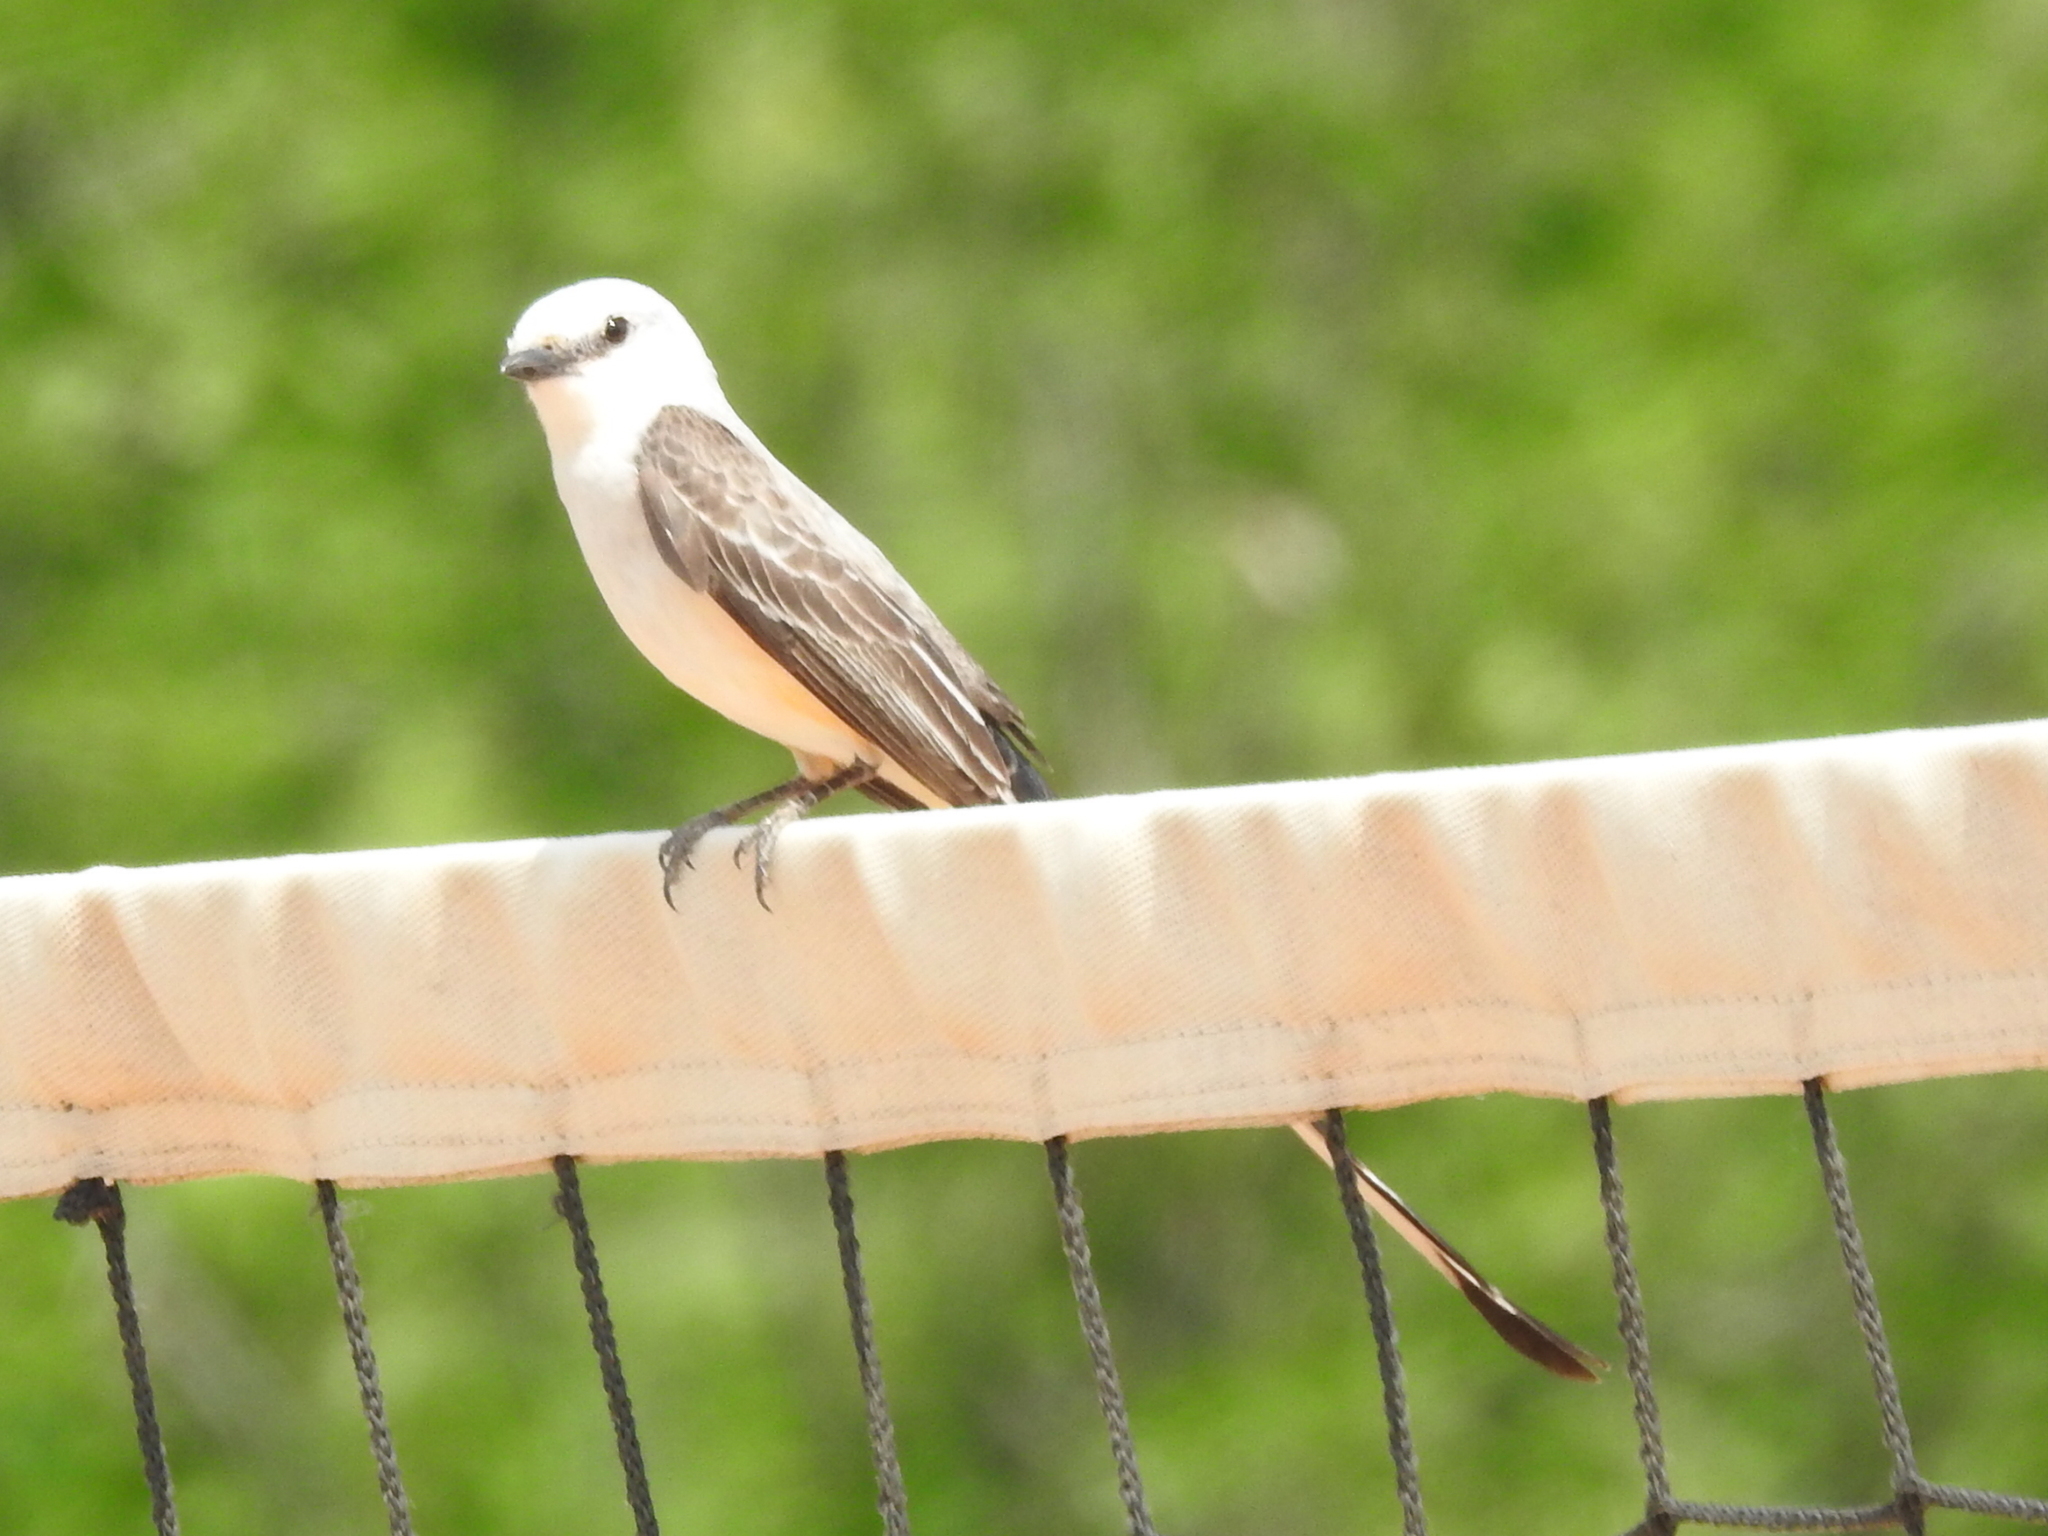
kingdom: Animalia
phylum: Chordata
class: Aves
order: Passeriformes
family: Tyrannidae
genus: Tyrannus
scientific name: Tyrannus forficatus
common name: Scissor-tailed flycatcher
